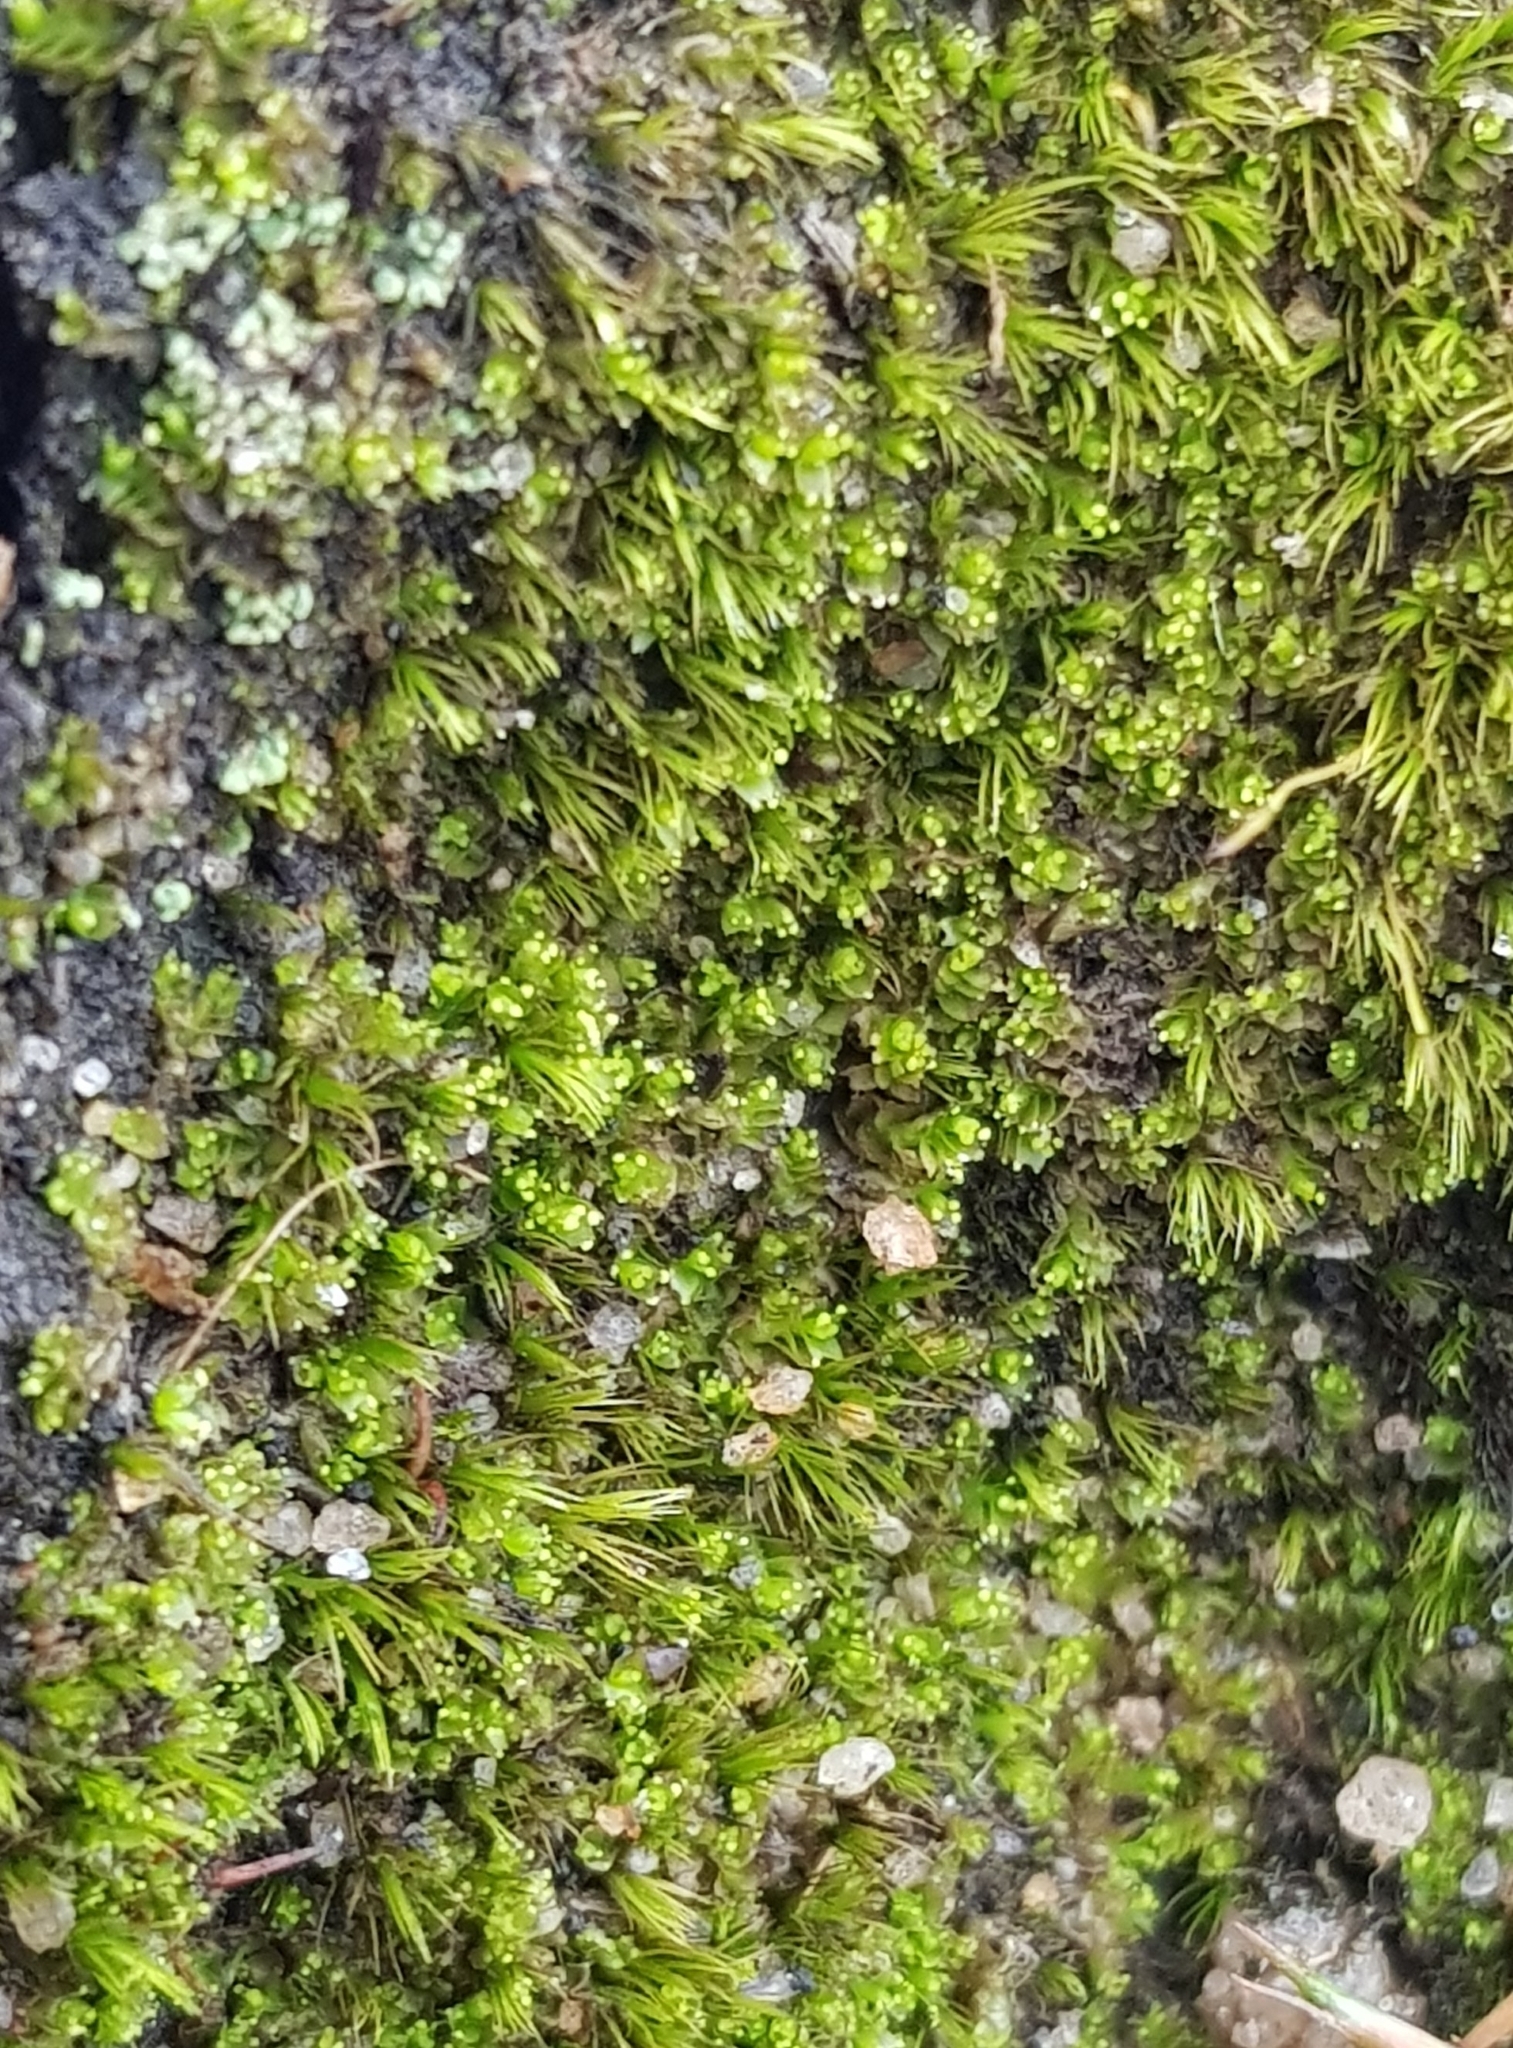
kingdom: Plantae
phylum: Bryophyta
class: Bryopsida
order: Dicranales
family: Dicranellaceae
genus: Dicranella
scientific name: Dicranella heteromalla
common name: Silky forklet moss
